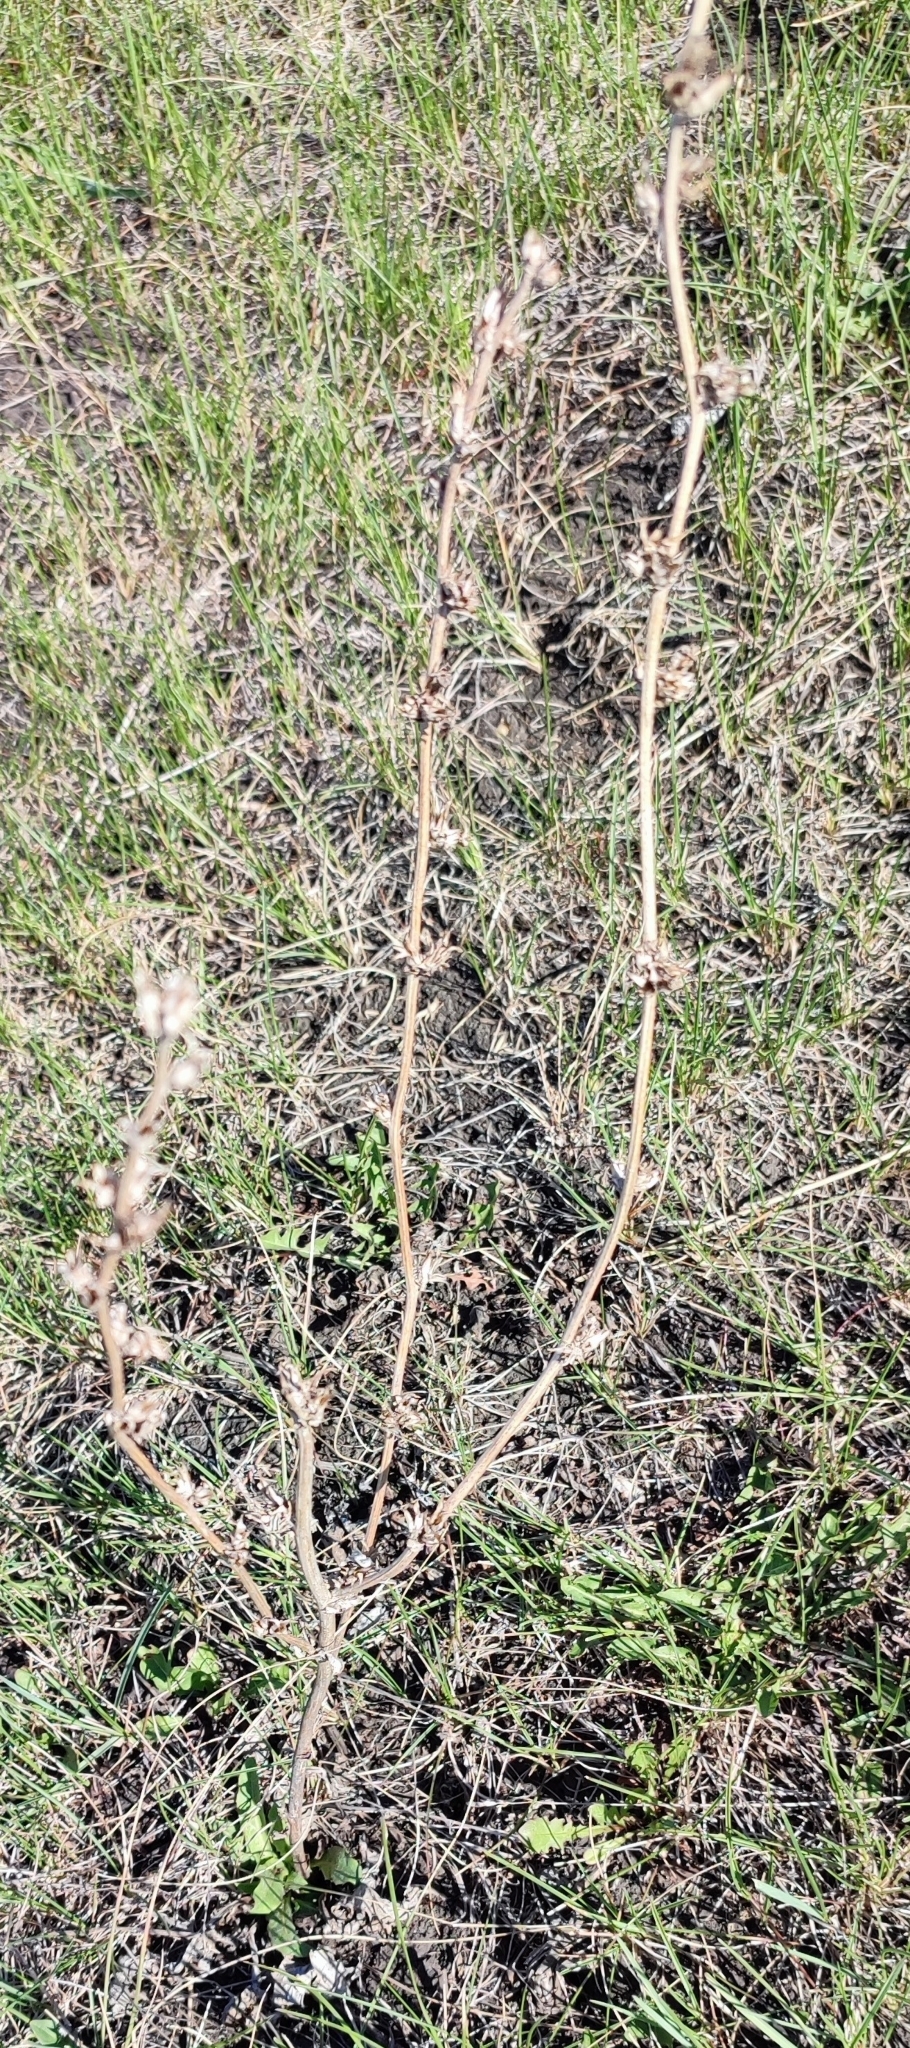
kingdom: Plantae
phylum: Tracheophyta
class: Magnoliopsida
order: Asterales
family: Asteraceae
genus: Cichorium
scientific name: Cichorium intybus
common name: Chicory
